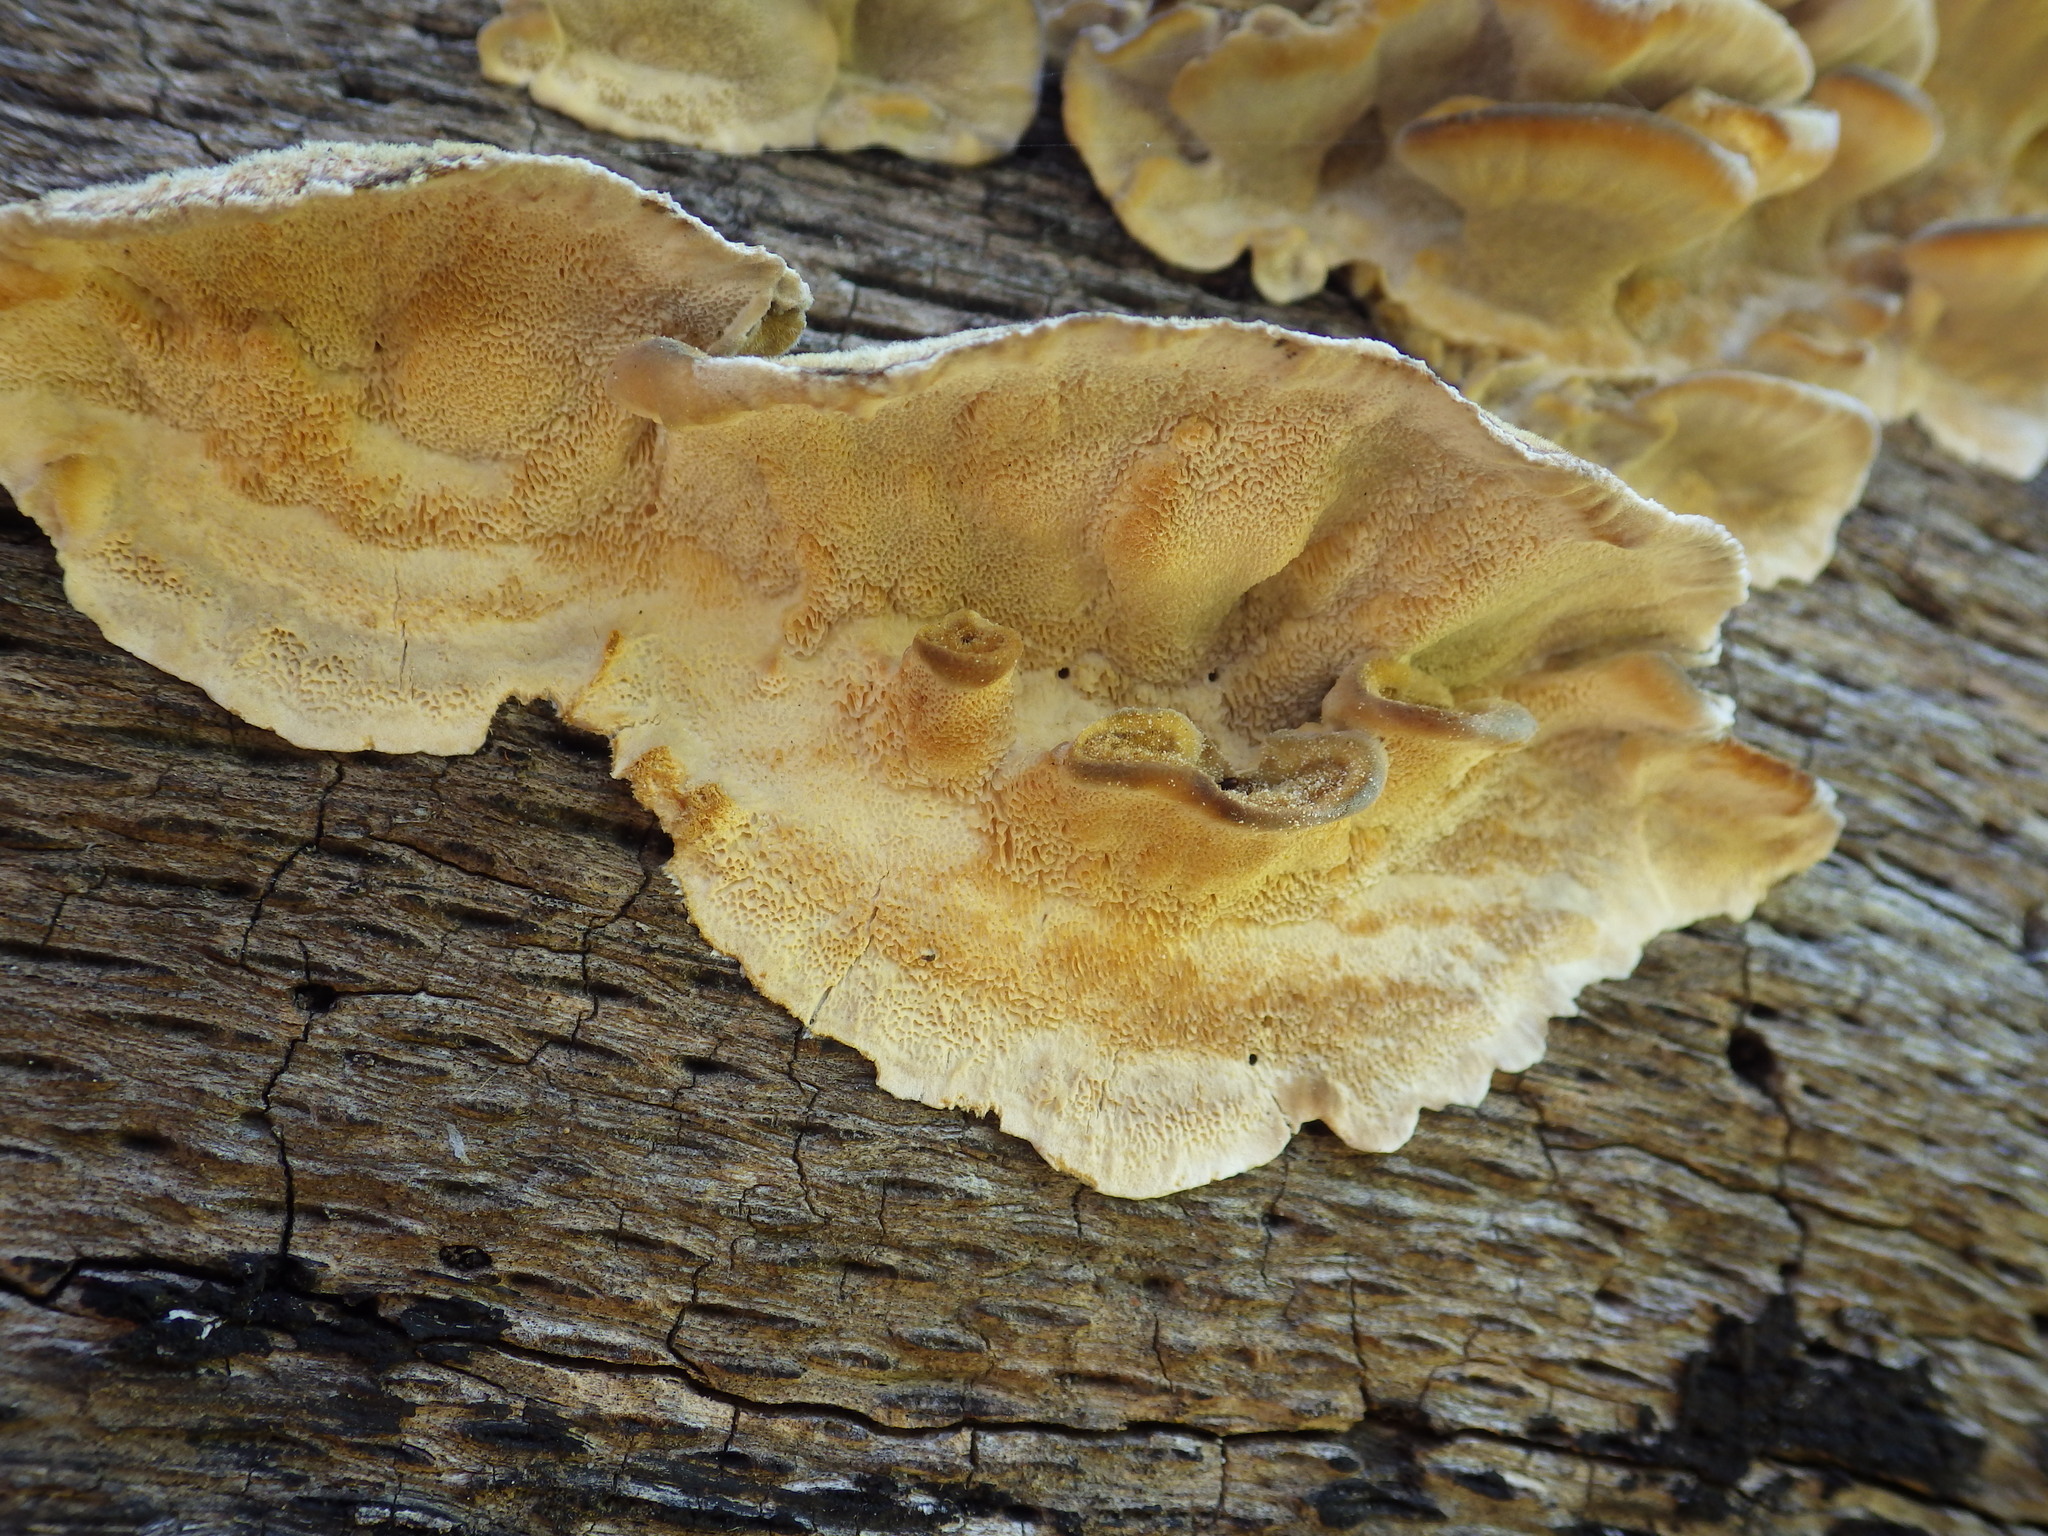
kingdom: Fungi
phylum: Basidiomycota
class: Agaricomycetes
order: Polyporales
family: Polyporaceae
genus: Trametes
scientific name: Trametes versicolor
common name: Turkeytail
